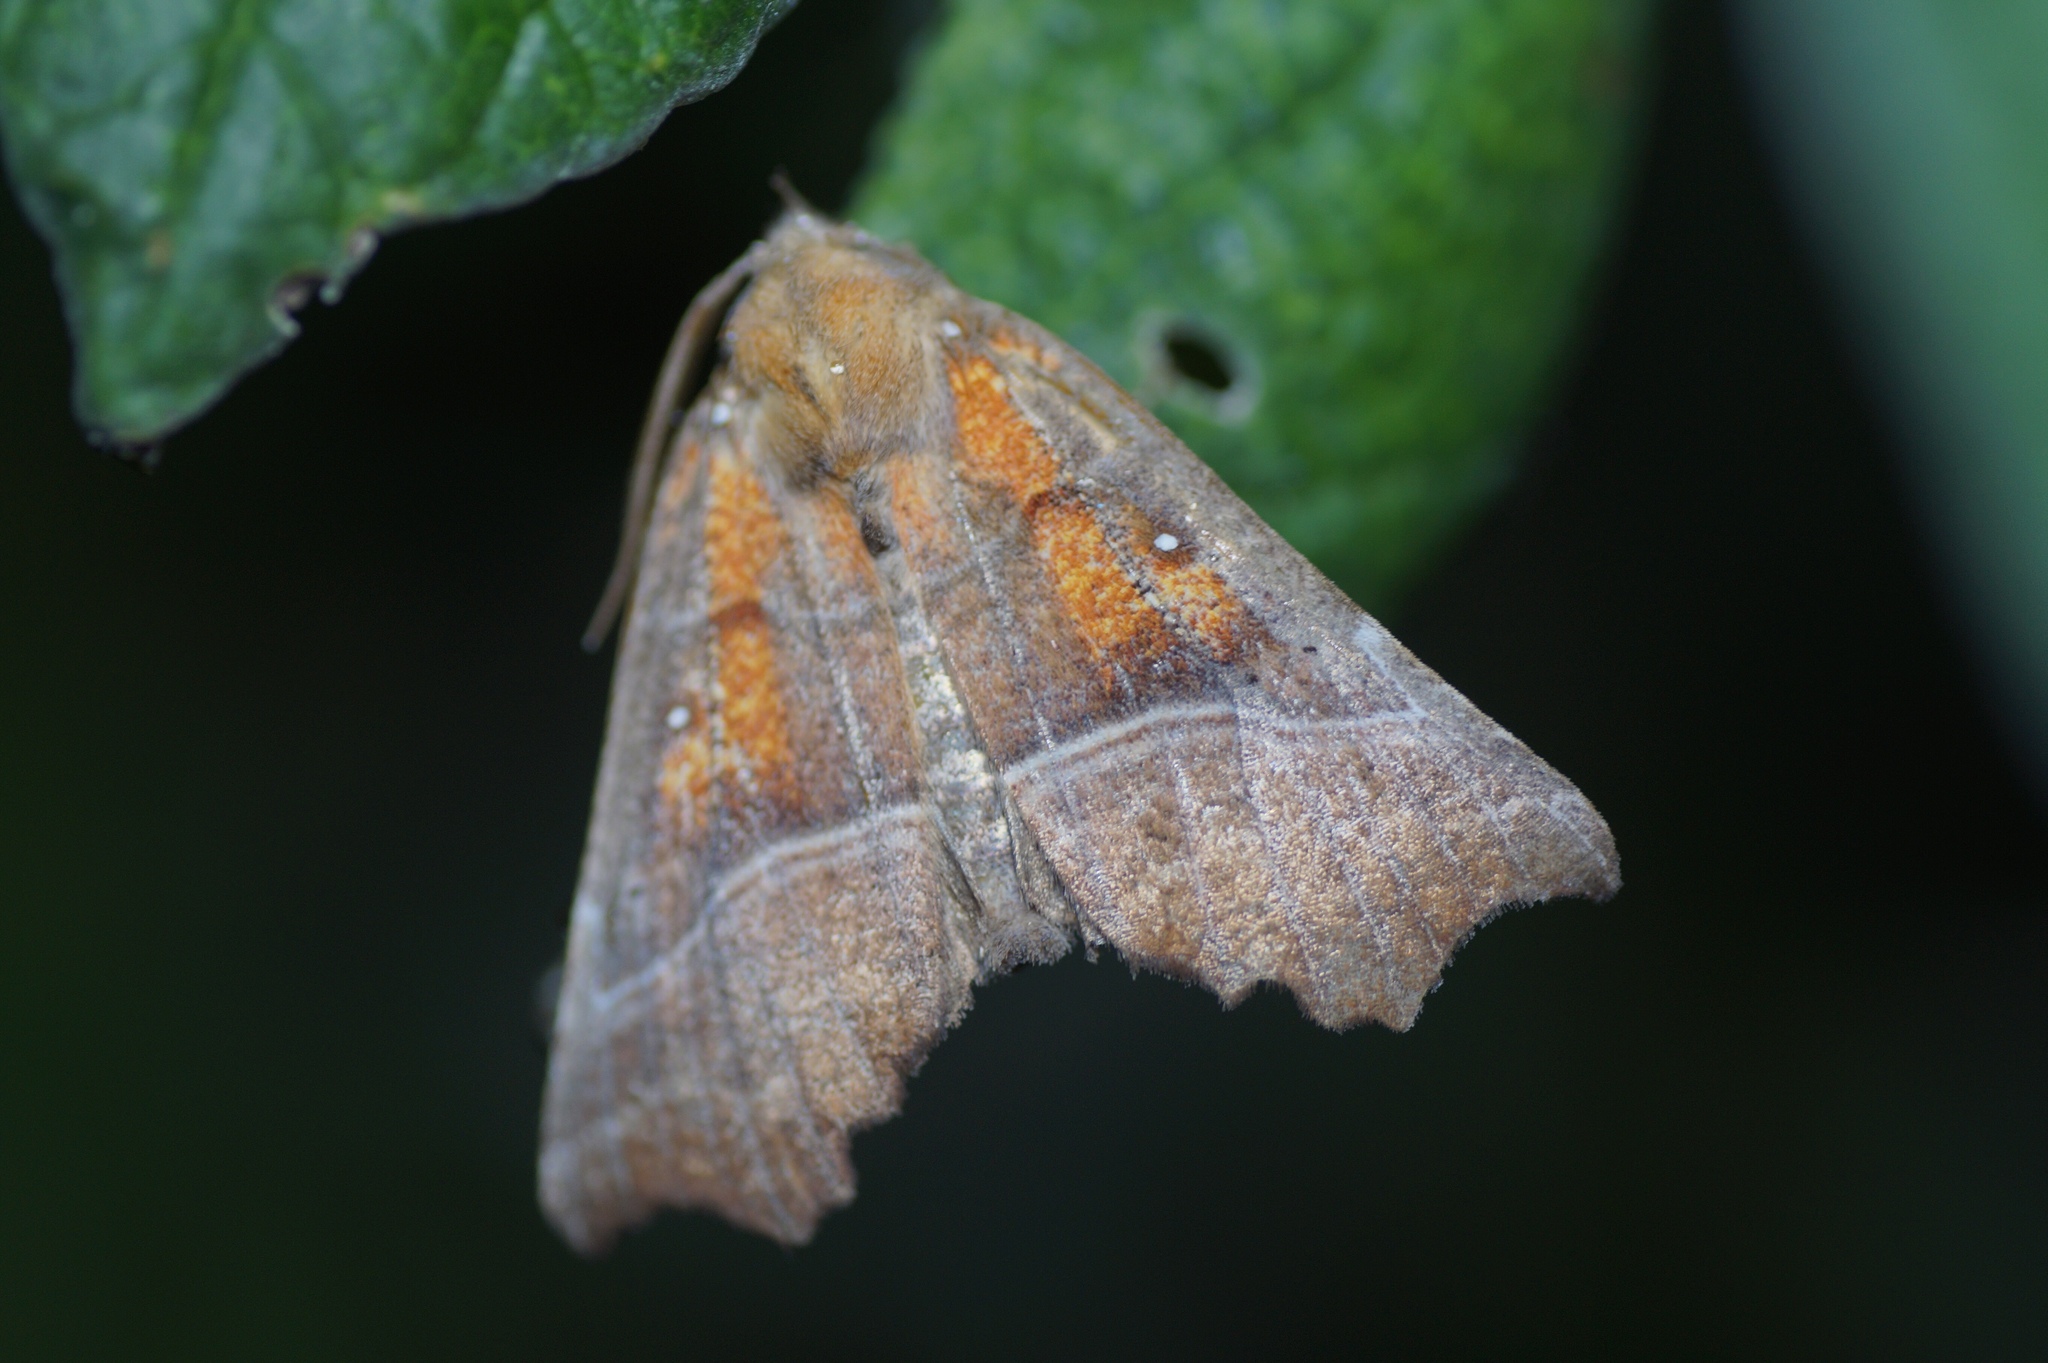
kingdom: Animalia
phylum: Arthropoda
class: Insecta
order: Lepidoptera
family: Erebidae
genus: Scoliopteryx
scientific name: Scoliopteryx libatrix
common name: Herald
